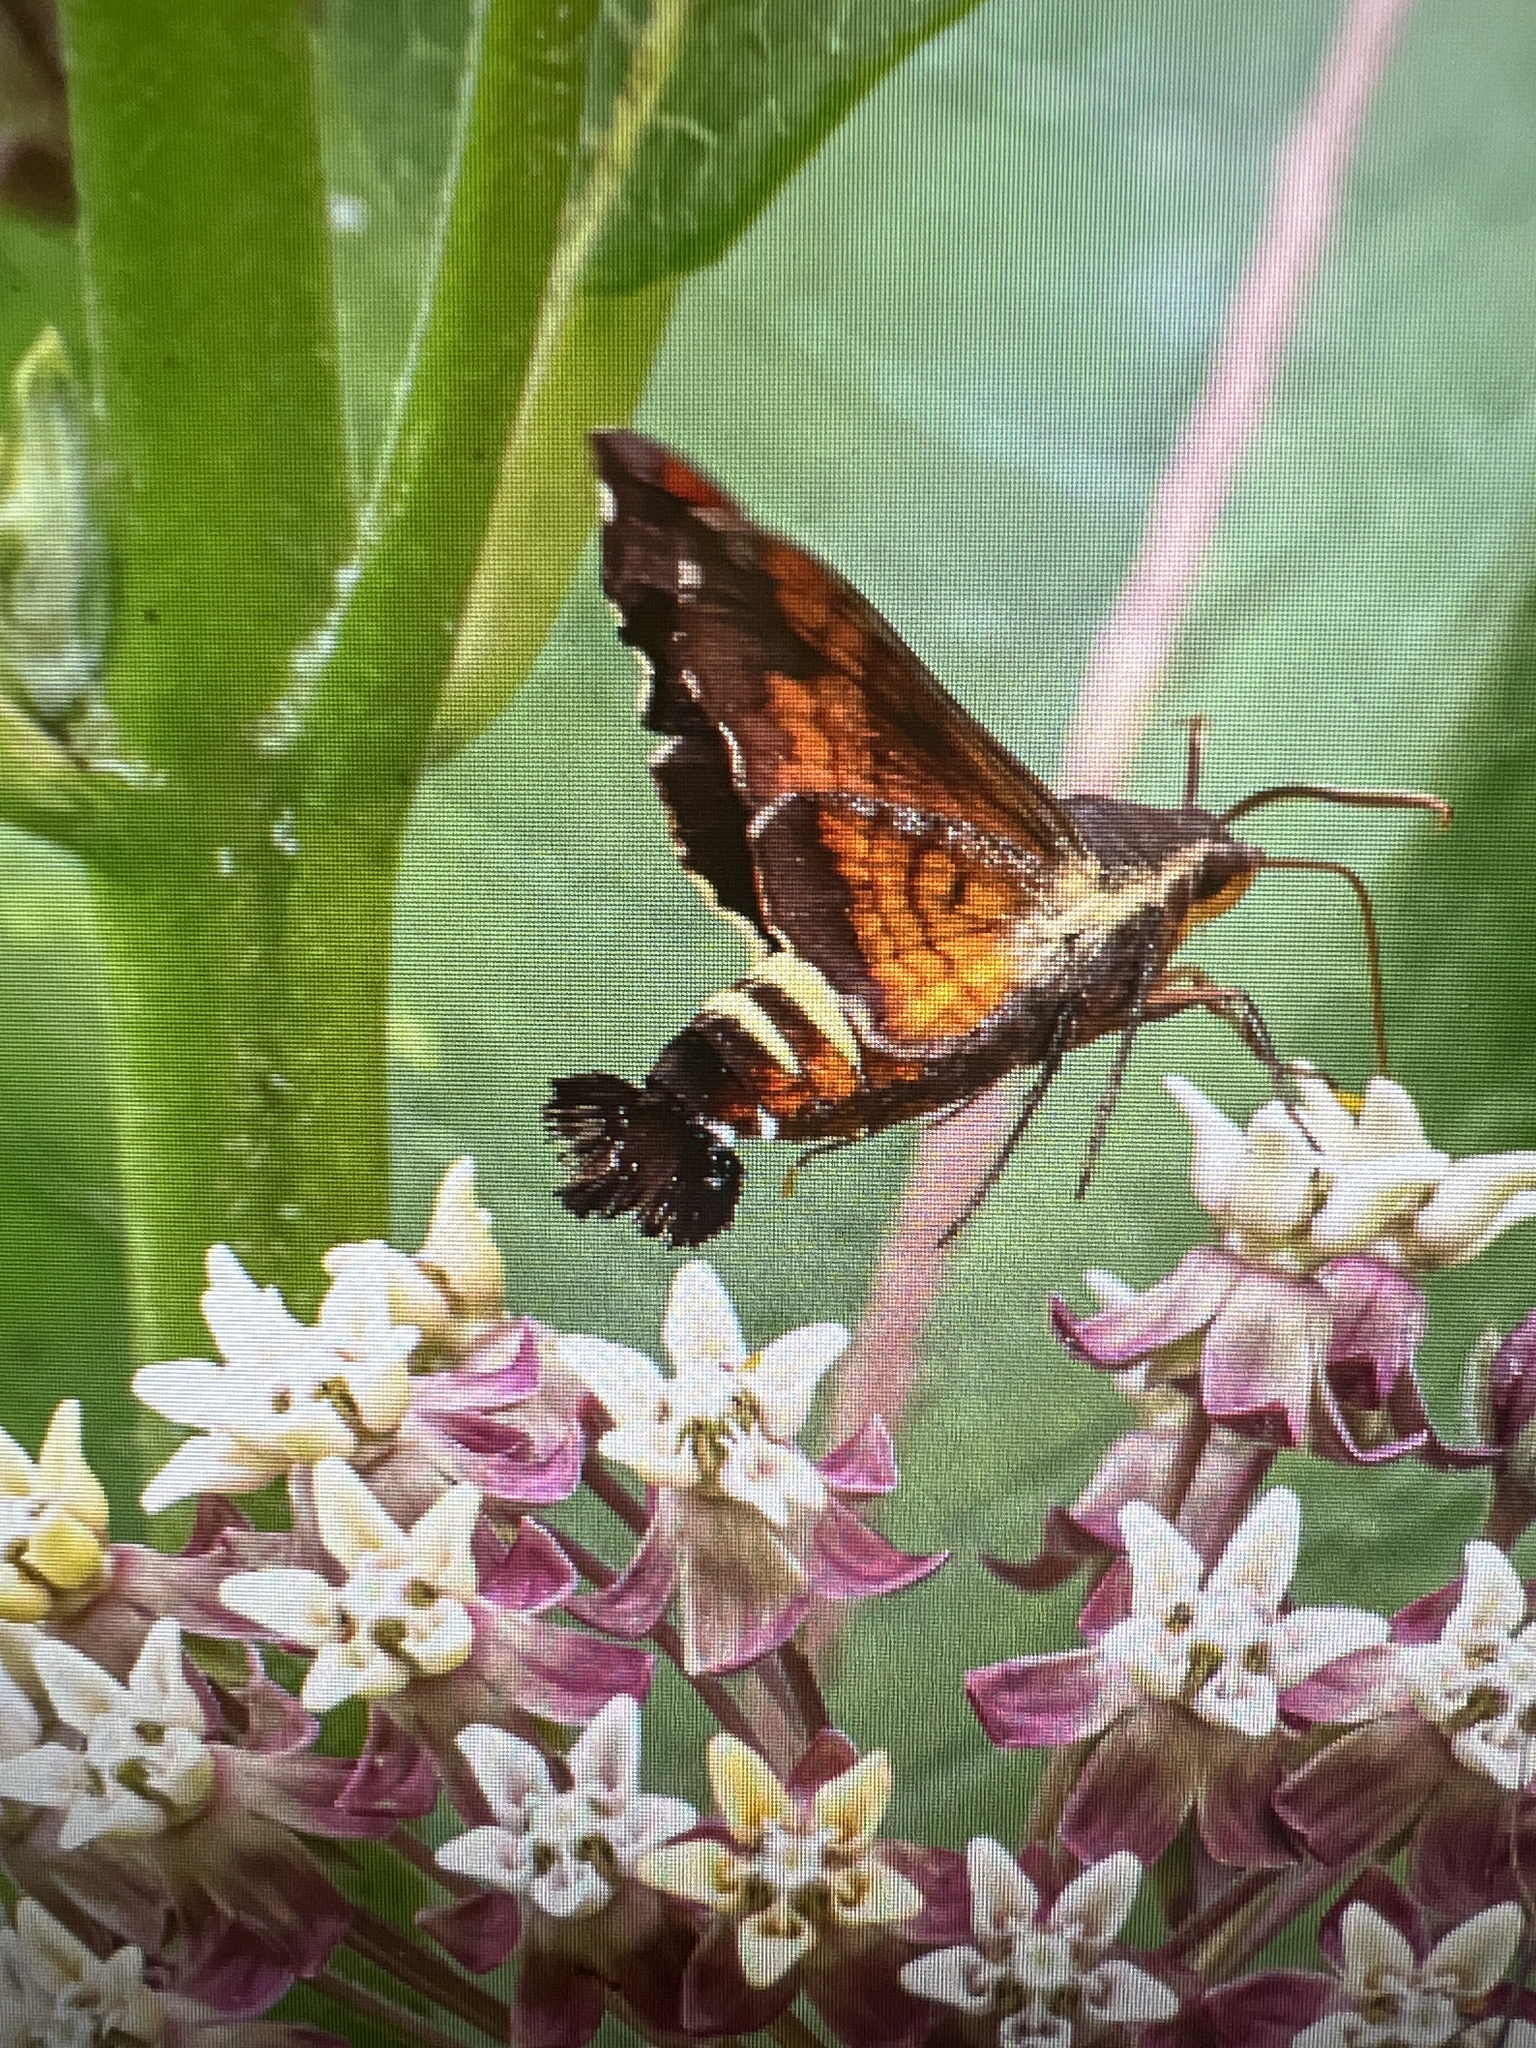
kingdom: Animalia
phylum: Arthropoda
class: Insecta
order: Lepidoptera
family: Sphingidae
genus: Amphion
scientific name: Amphion floridensis
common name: Nessus sphinx
